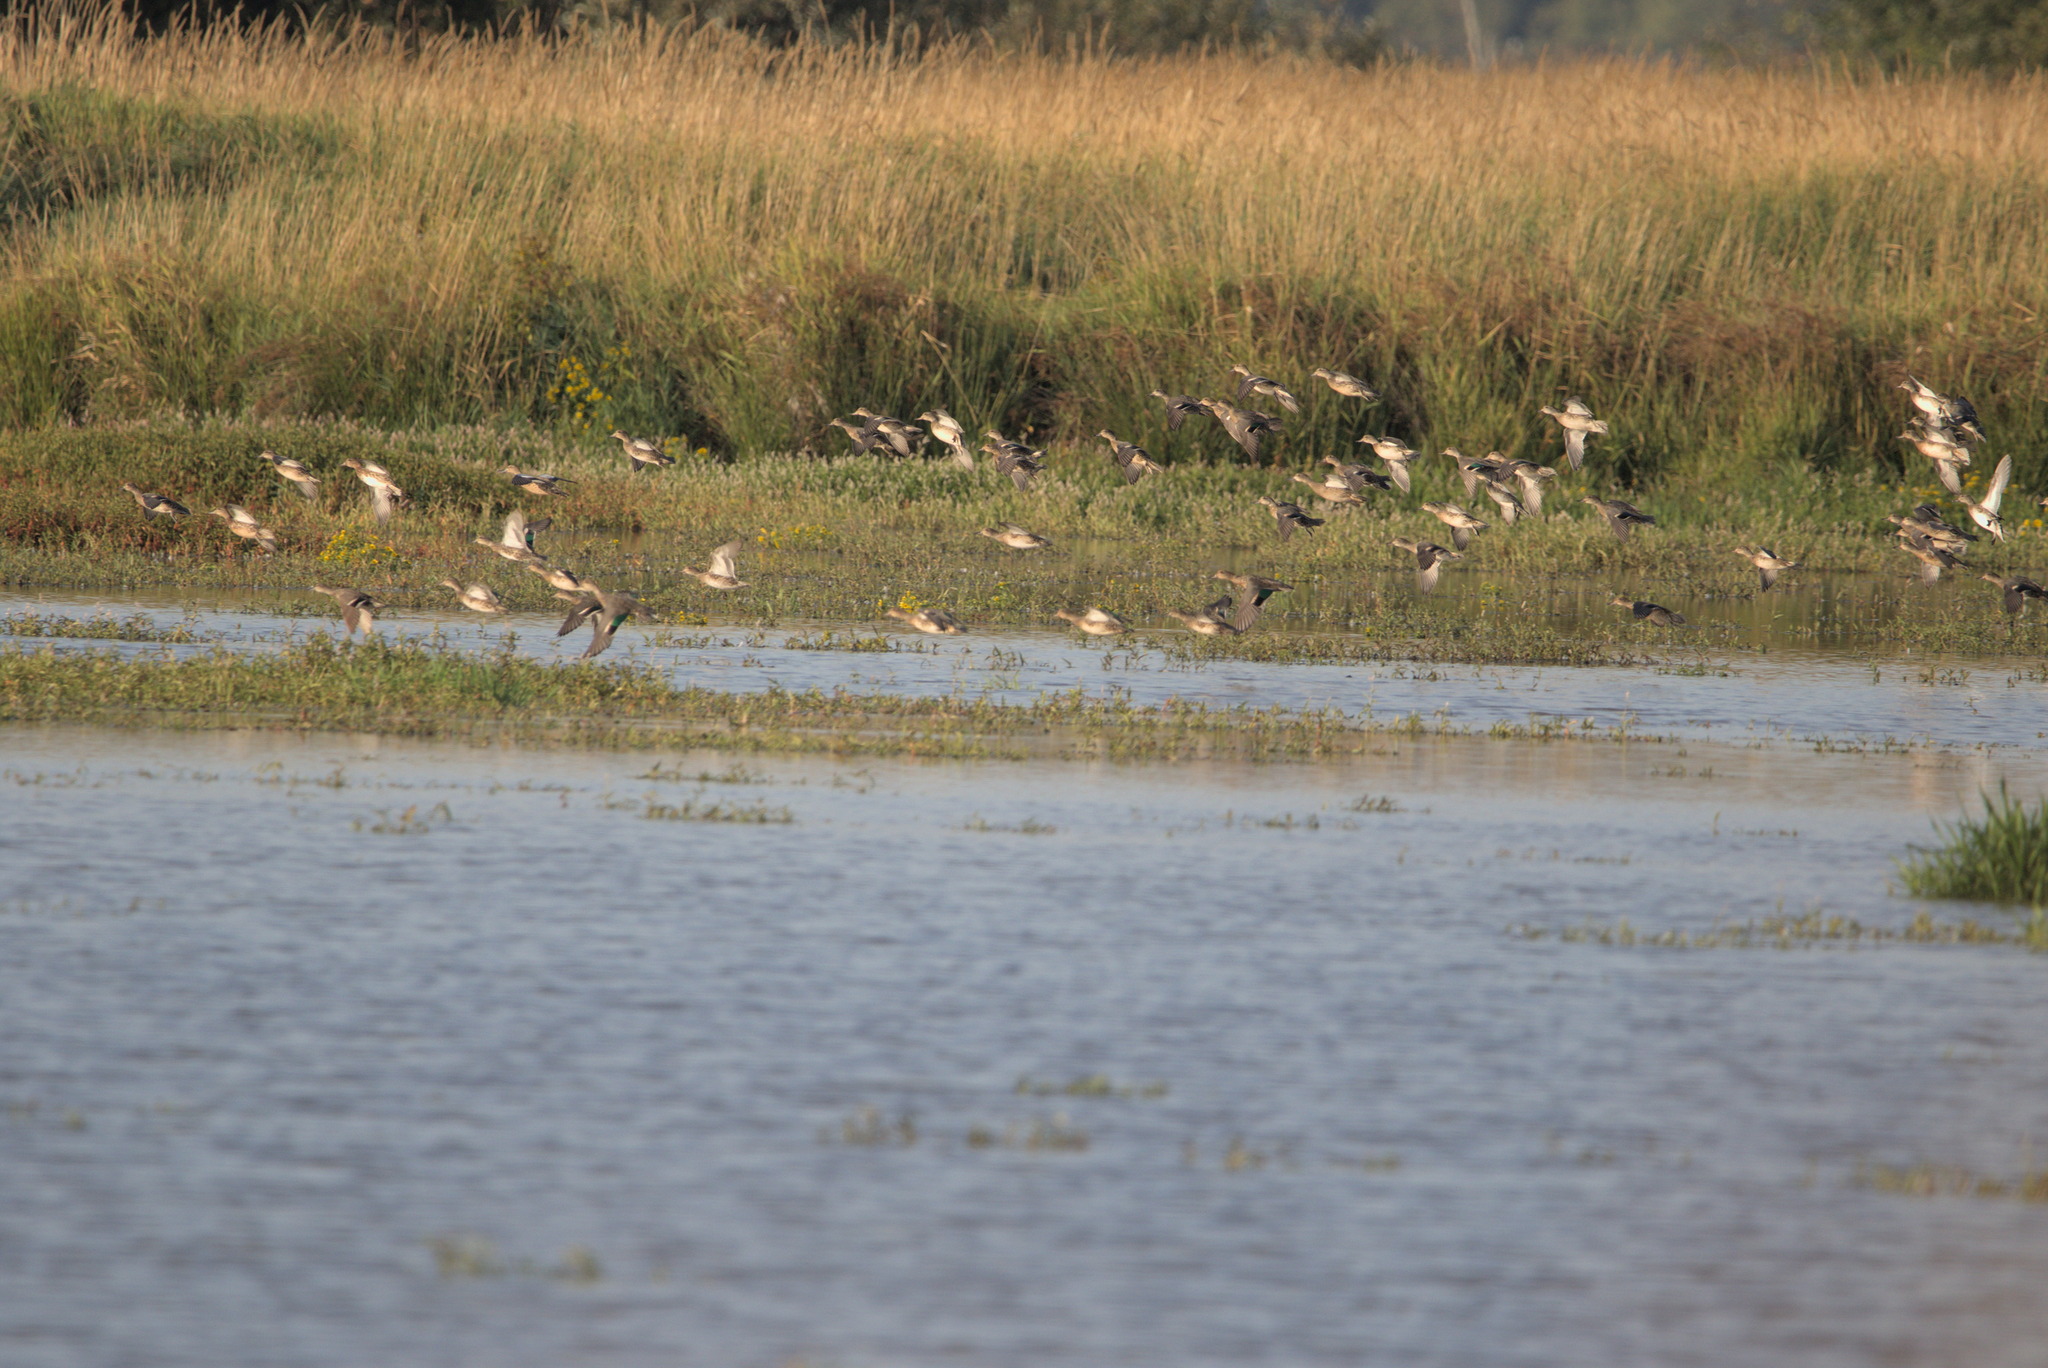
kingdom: Animalia
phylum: Chordata
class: Aves
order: Anseriformes
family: Anatidae
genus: Anas
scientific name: Anas crecca
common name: Eurasian teal
